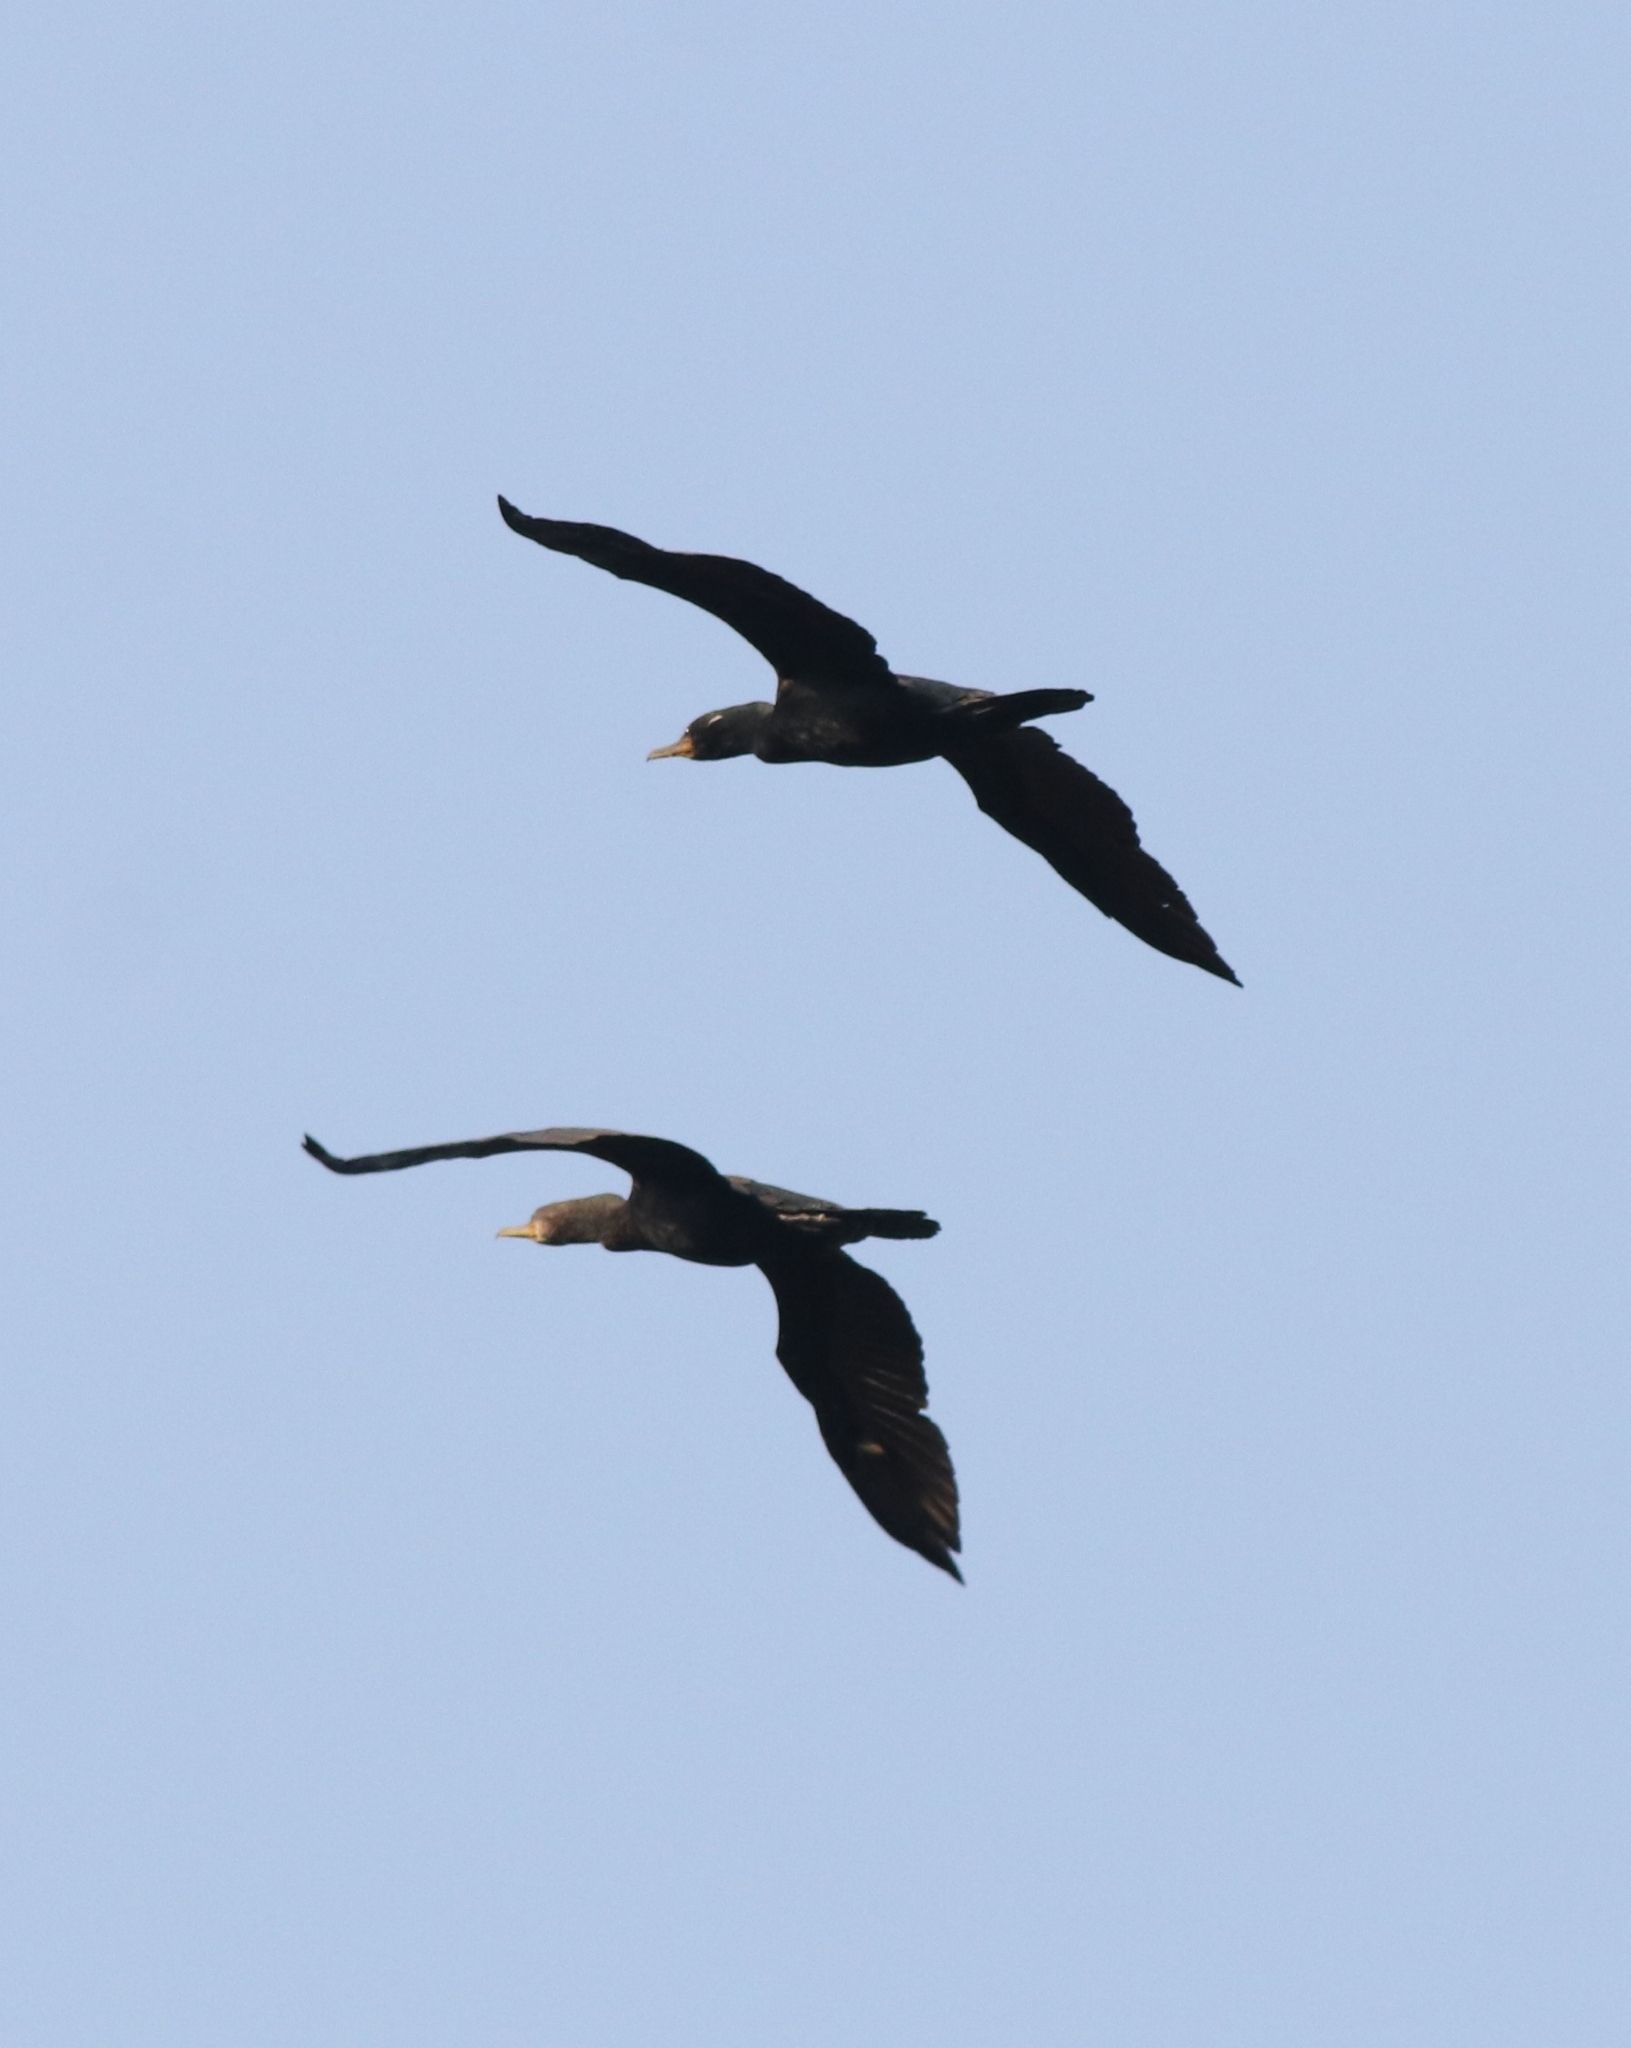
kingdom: Animalia
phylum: Chordata
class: Aves
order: Suliformes
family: Phalacrocoracidae
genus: Phalacrocorax
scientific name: Phalacrocorax fuscicollis
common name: Indian cormorant
